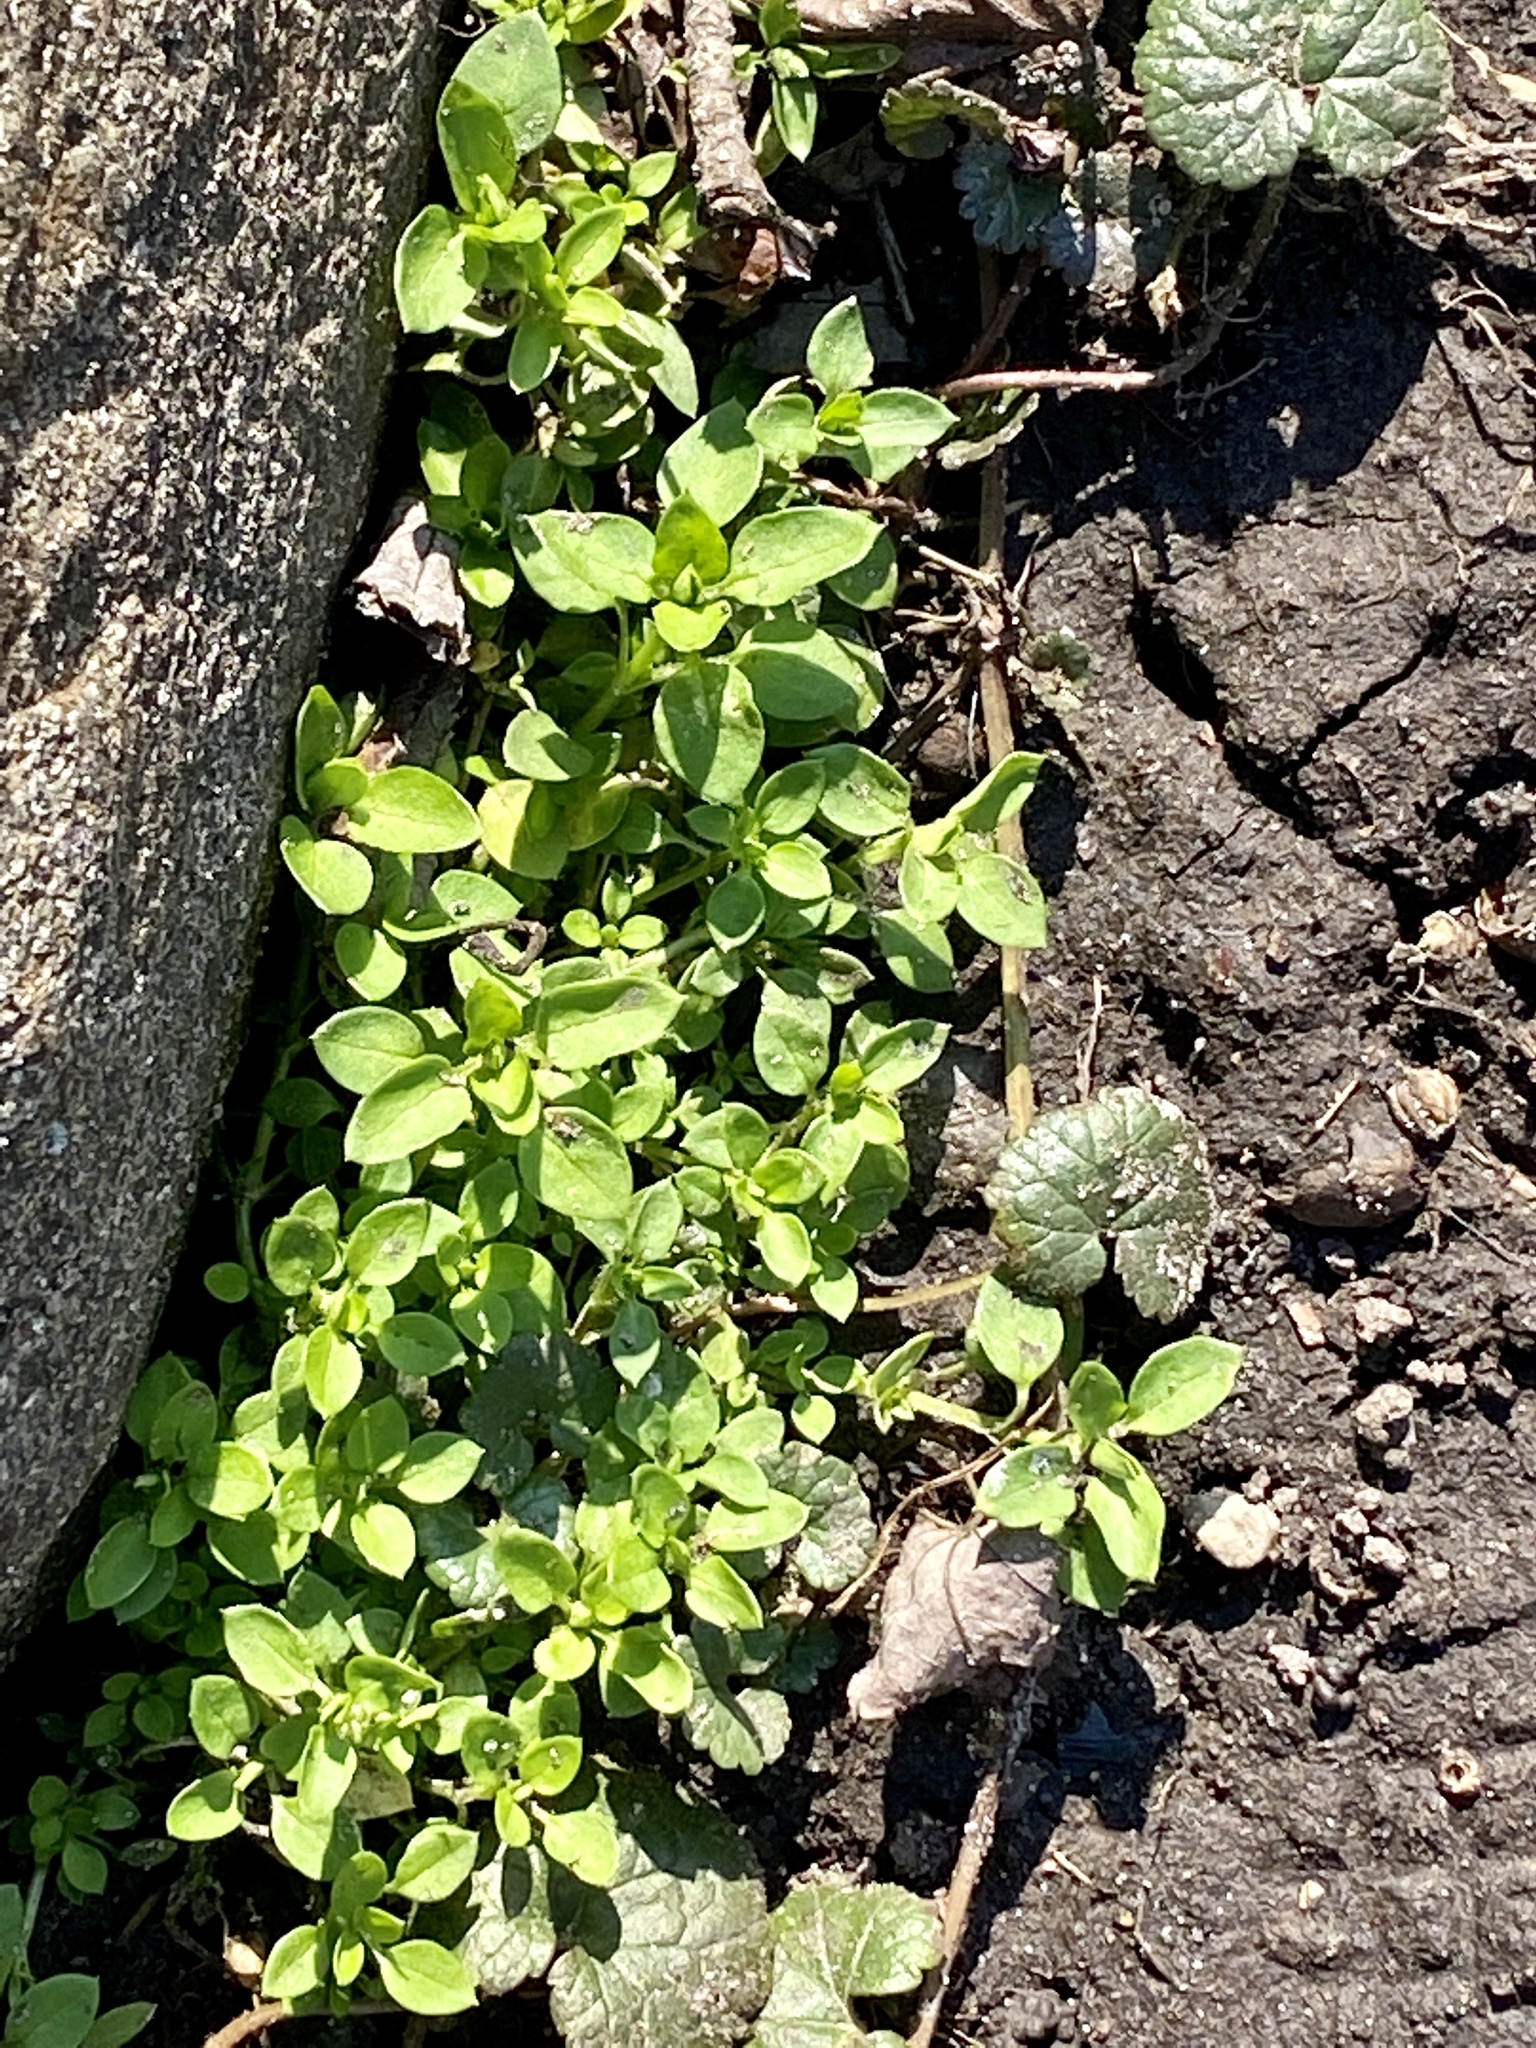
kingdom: Plantae
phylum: Tracheophyta
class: Magnoliopsida
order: Caryophyllales
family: Caryophyllaceae
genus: Stellaria
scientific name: Stellaria media
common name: Common chickweed
